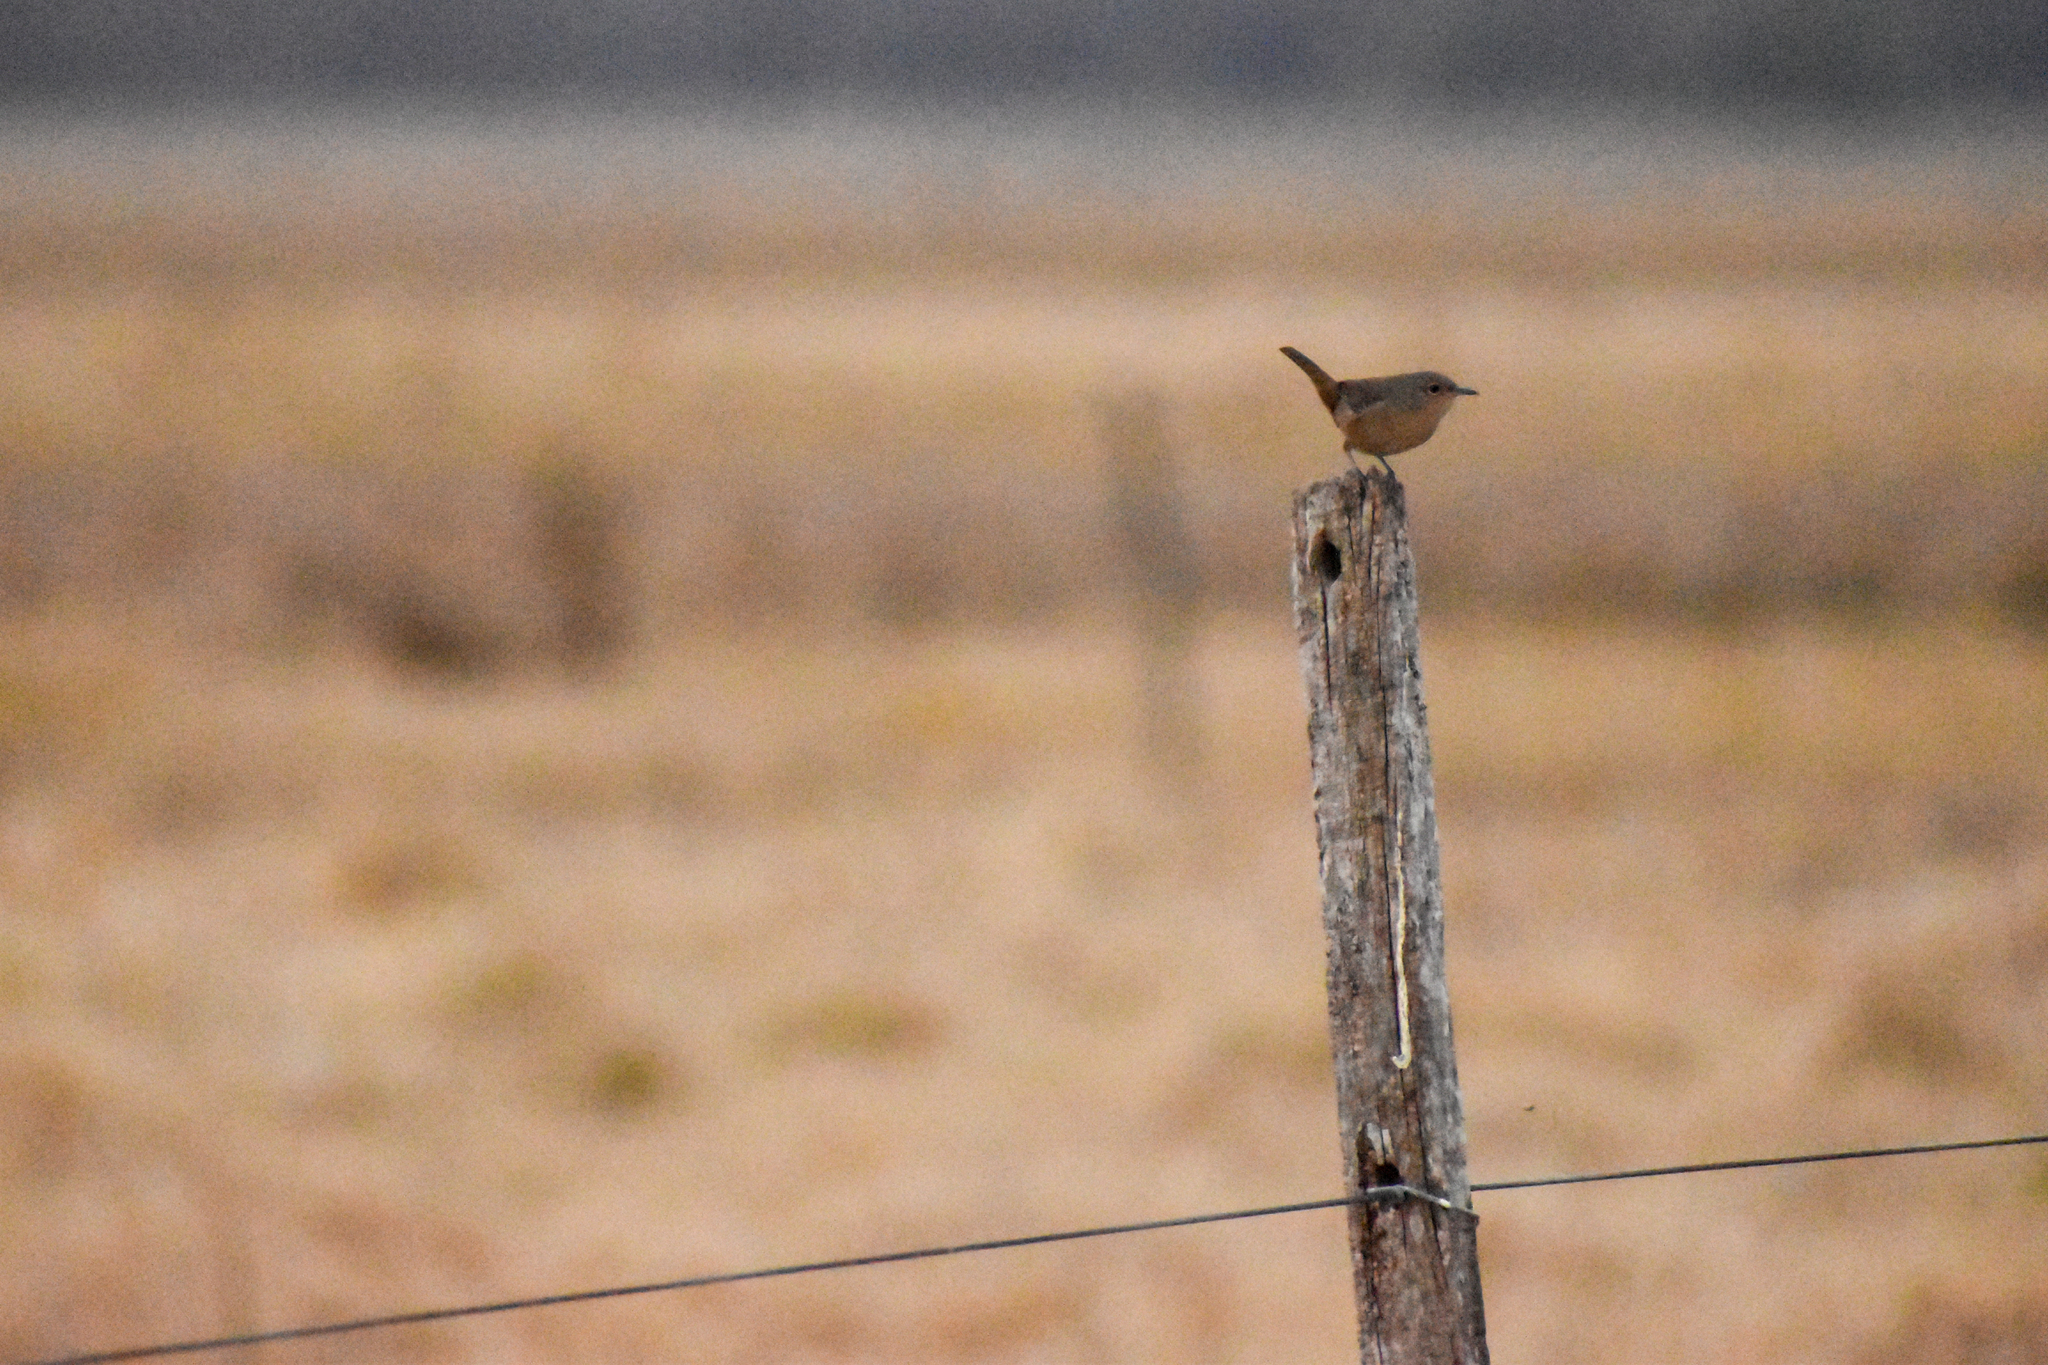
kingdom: Animalia
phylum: Chordata
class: Aves
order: Passeriformes
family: Troglodytidae
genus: Troglodytes
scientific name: Troglodytes aedon
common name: House wren
